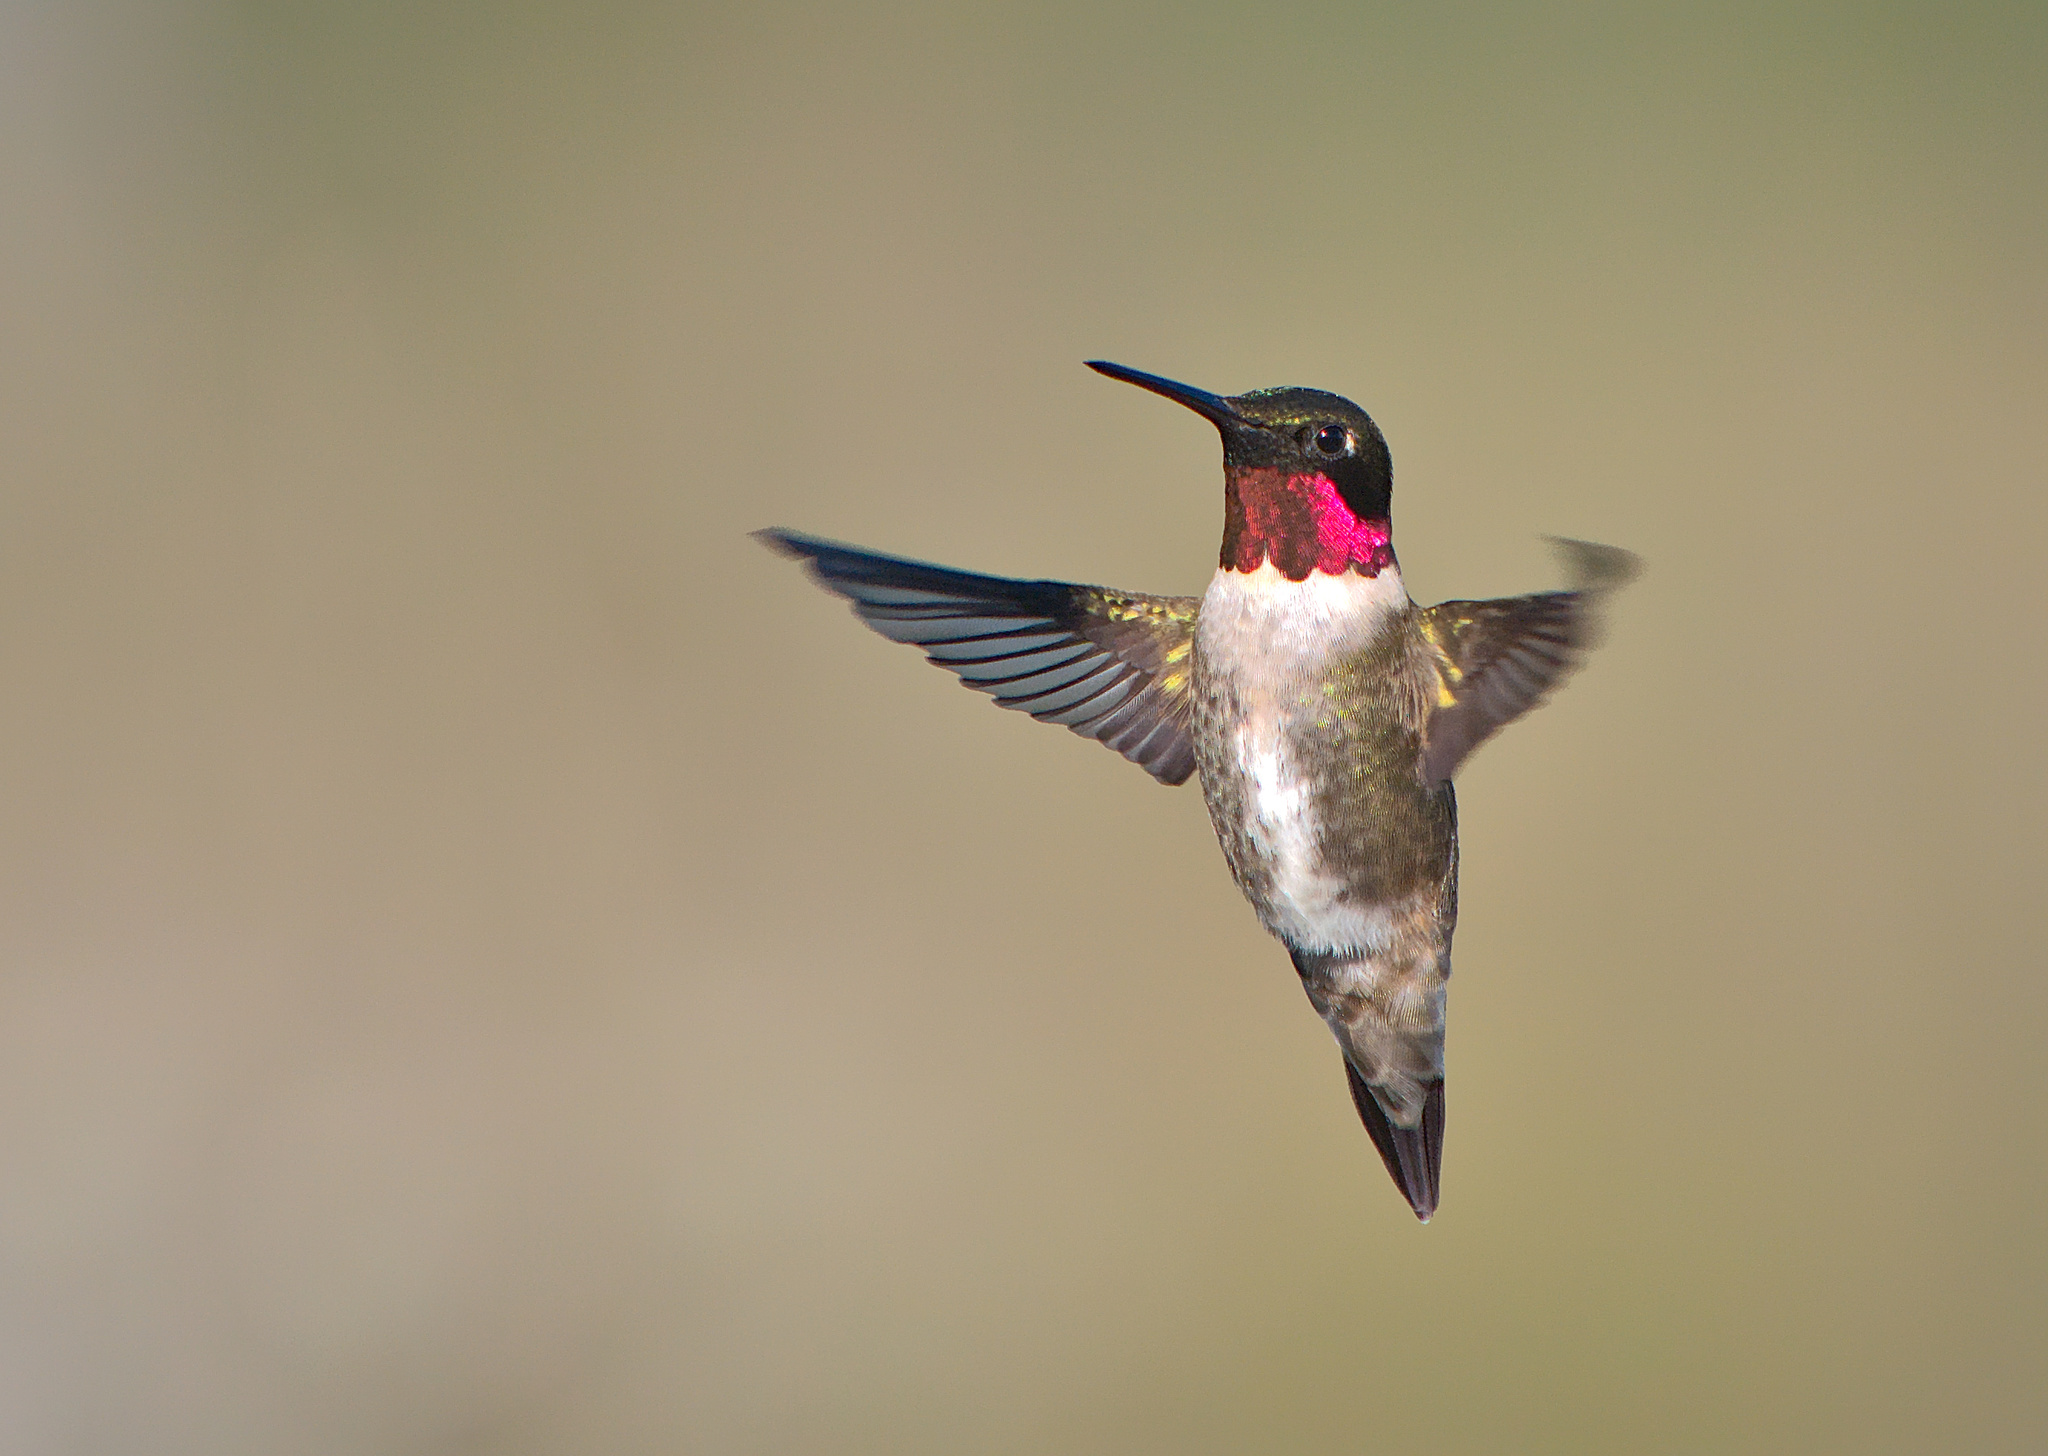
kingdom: Animalia
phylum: Chordata
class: Aves
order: Apodiformes
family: Trochilidae
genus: Archilochus
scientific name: Archilochus colubris
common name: Ruby-throated hummingbird
